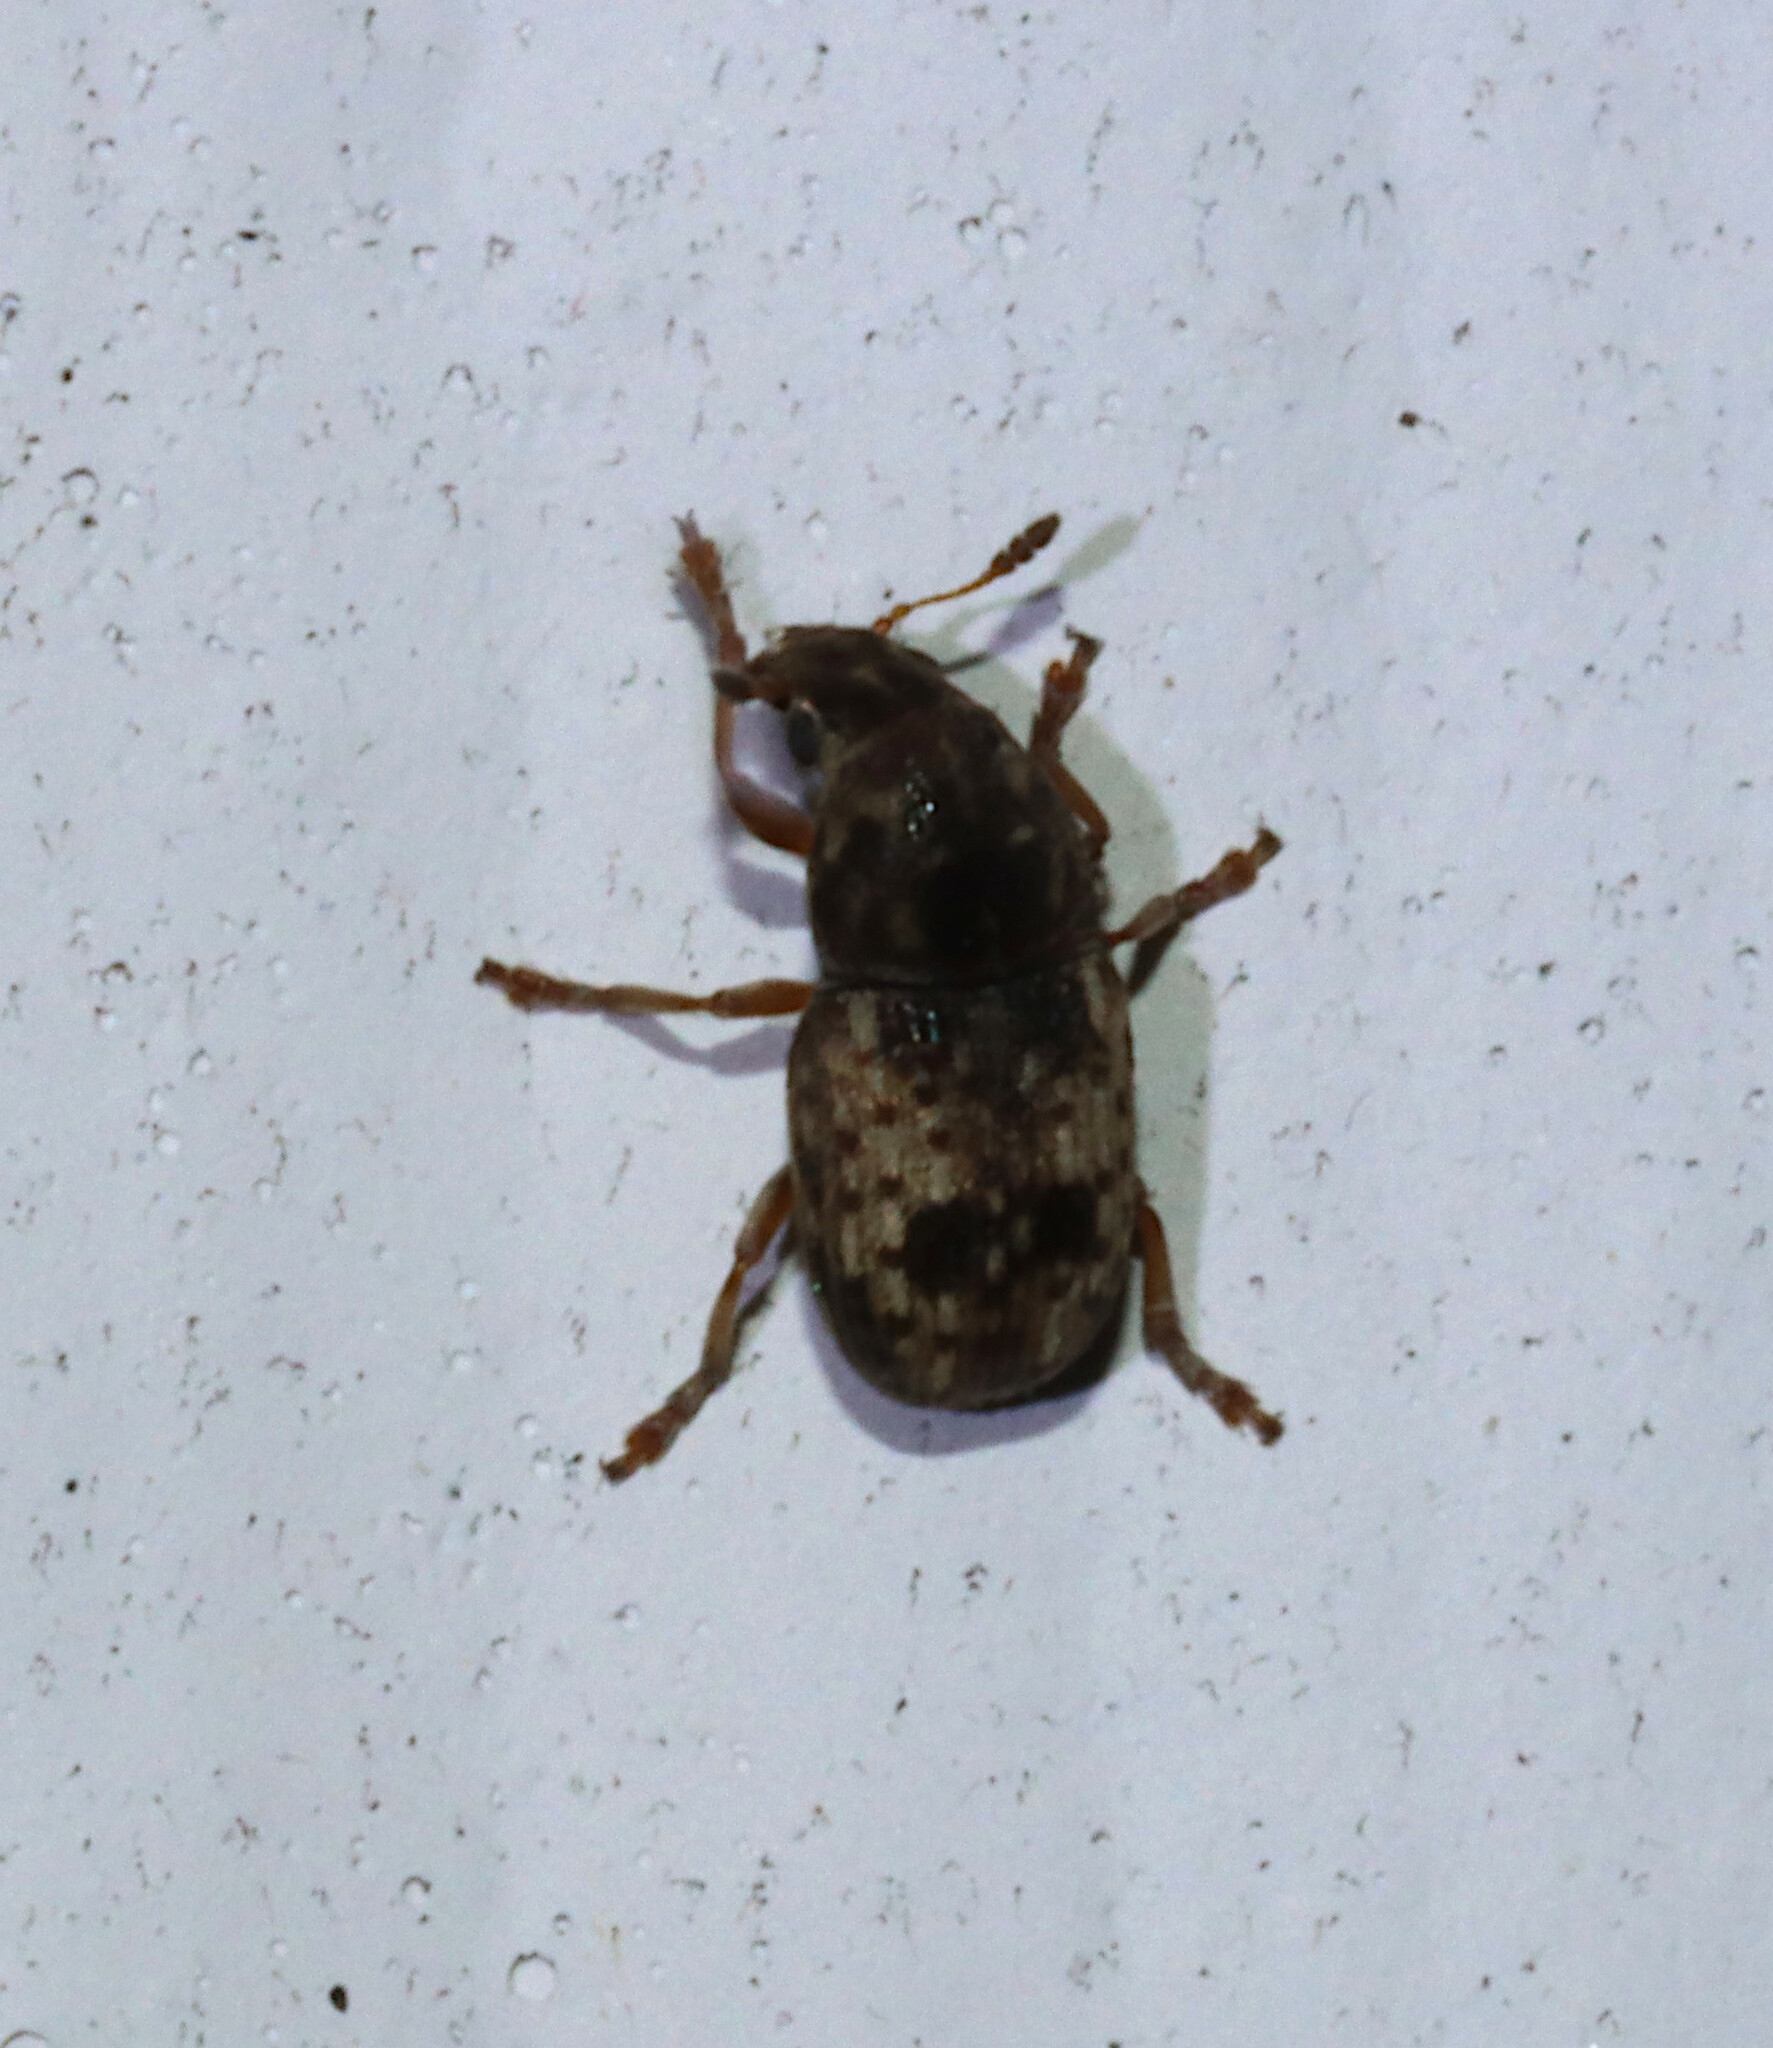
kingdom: Animalia
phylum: Arthropoda
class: Insecta
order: Coleoptera
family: Anthribidae
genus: Trigonorhinus
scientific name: Trigonorhinus sticticus
